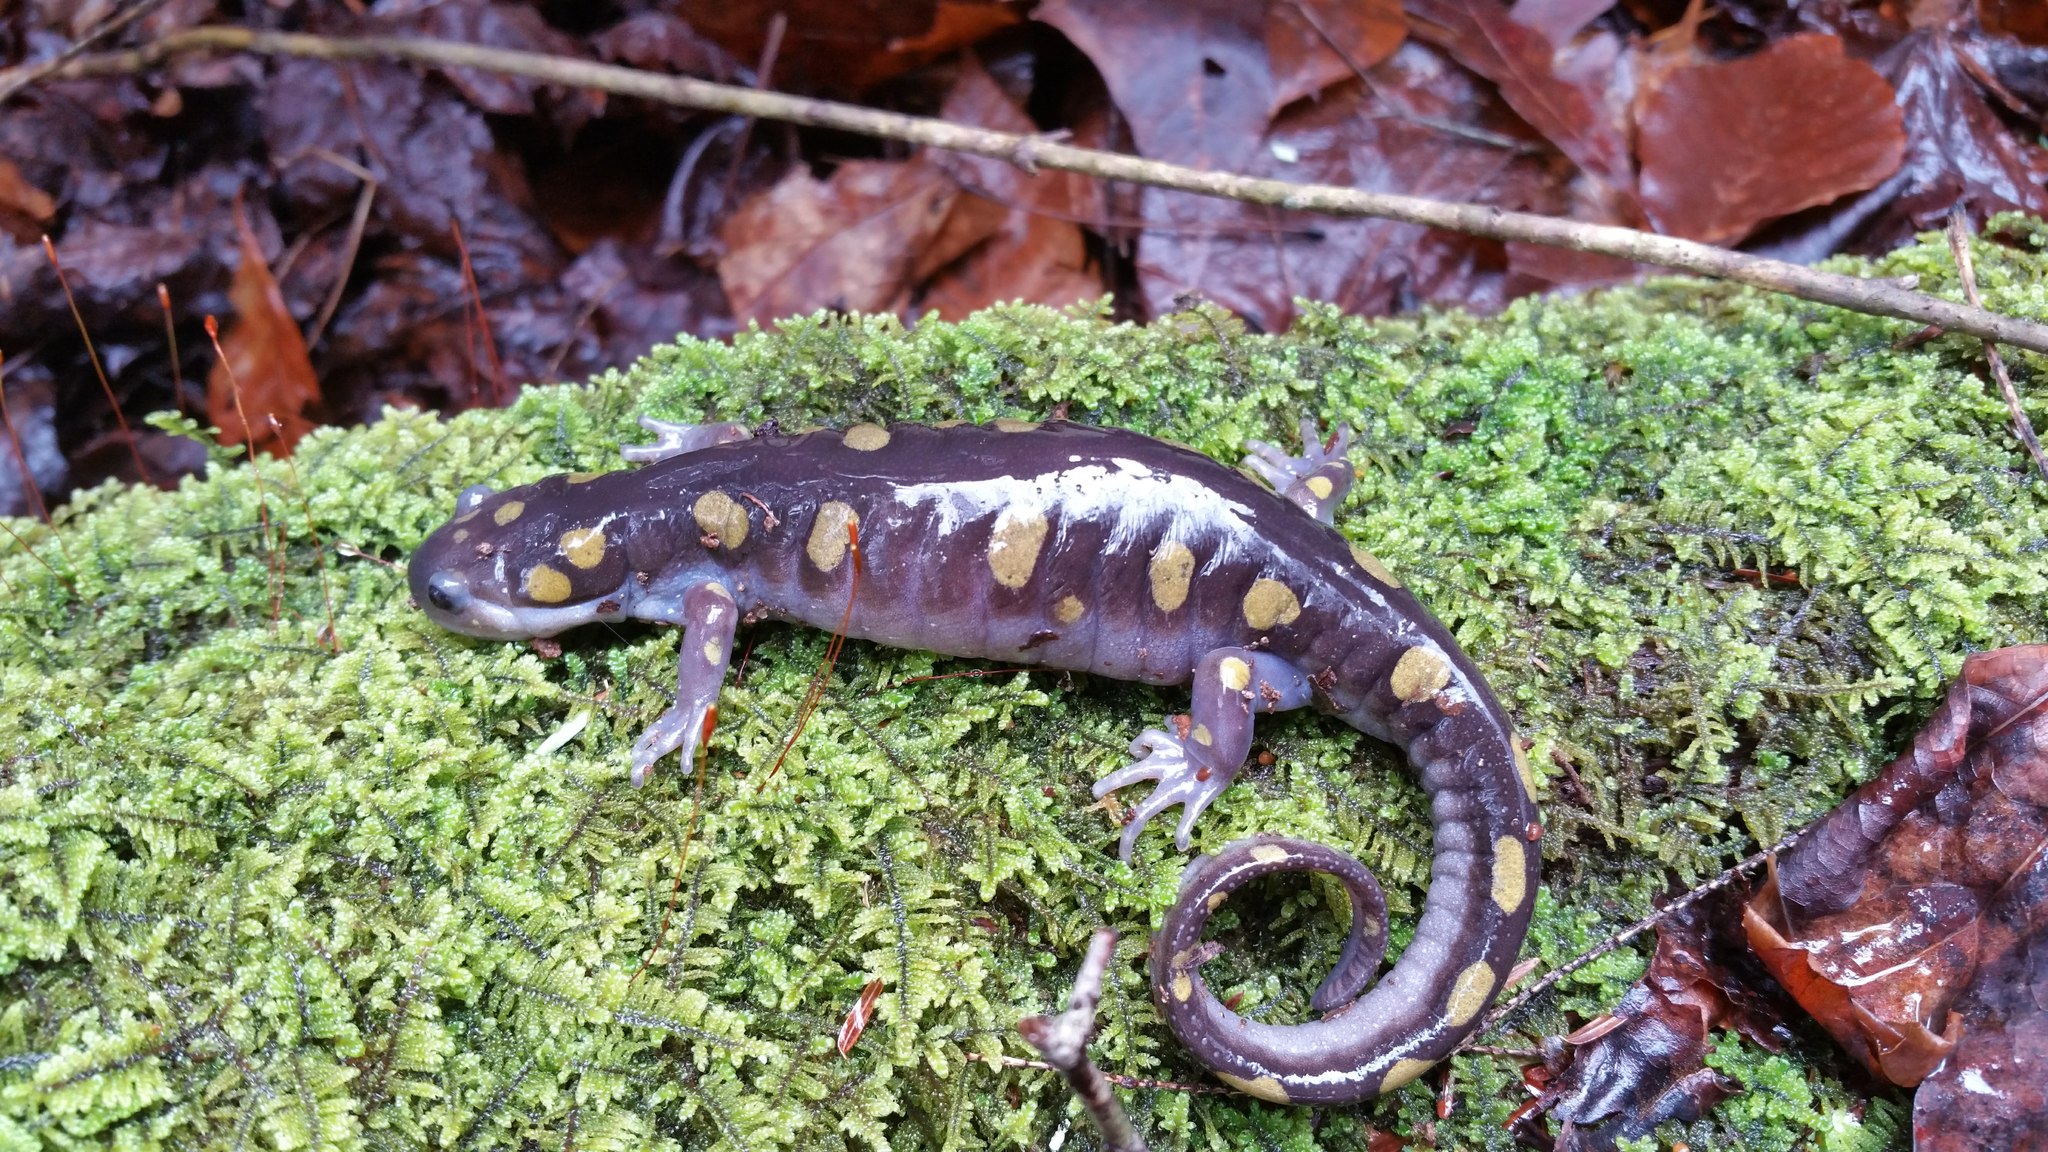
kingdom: Animalia
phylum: Chordata
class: Amphibia
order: Caudata
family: Ambystomatidae
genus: Ambystoma
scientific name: Ambystoma maculatum
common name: Spotted salamander
